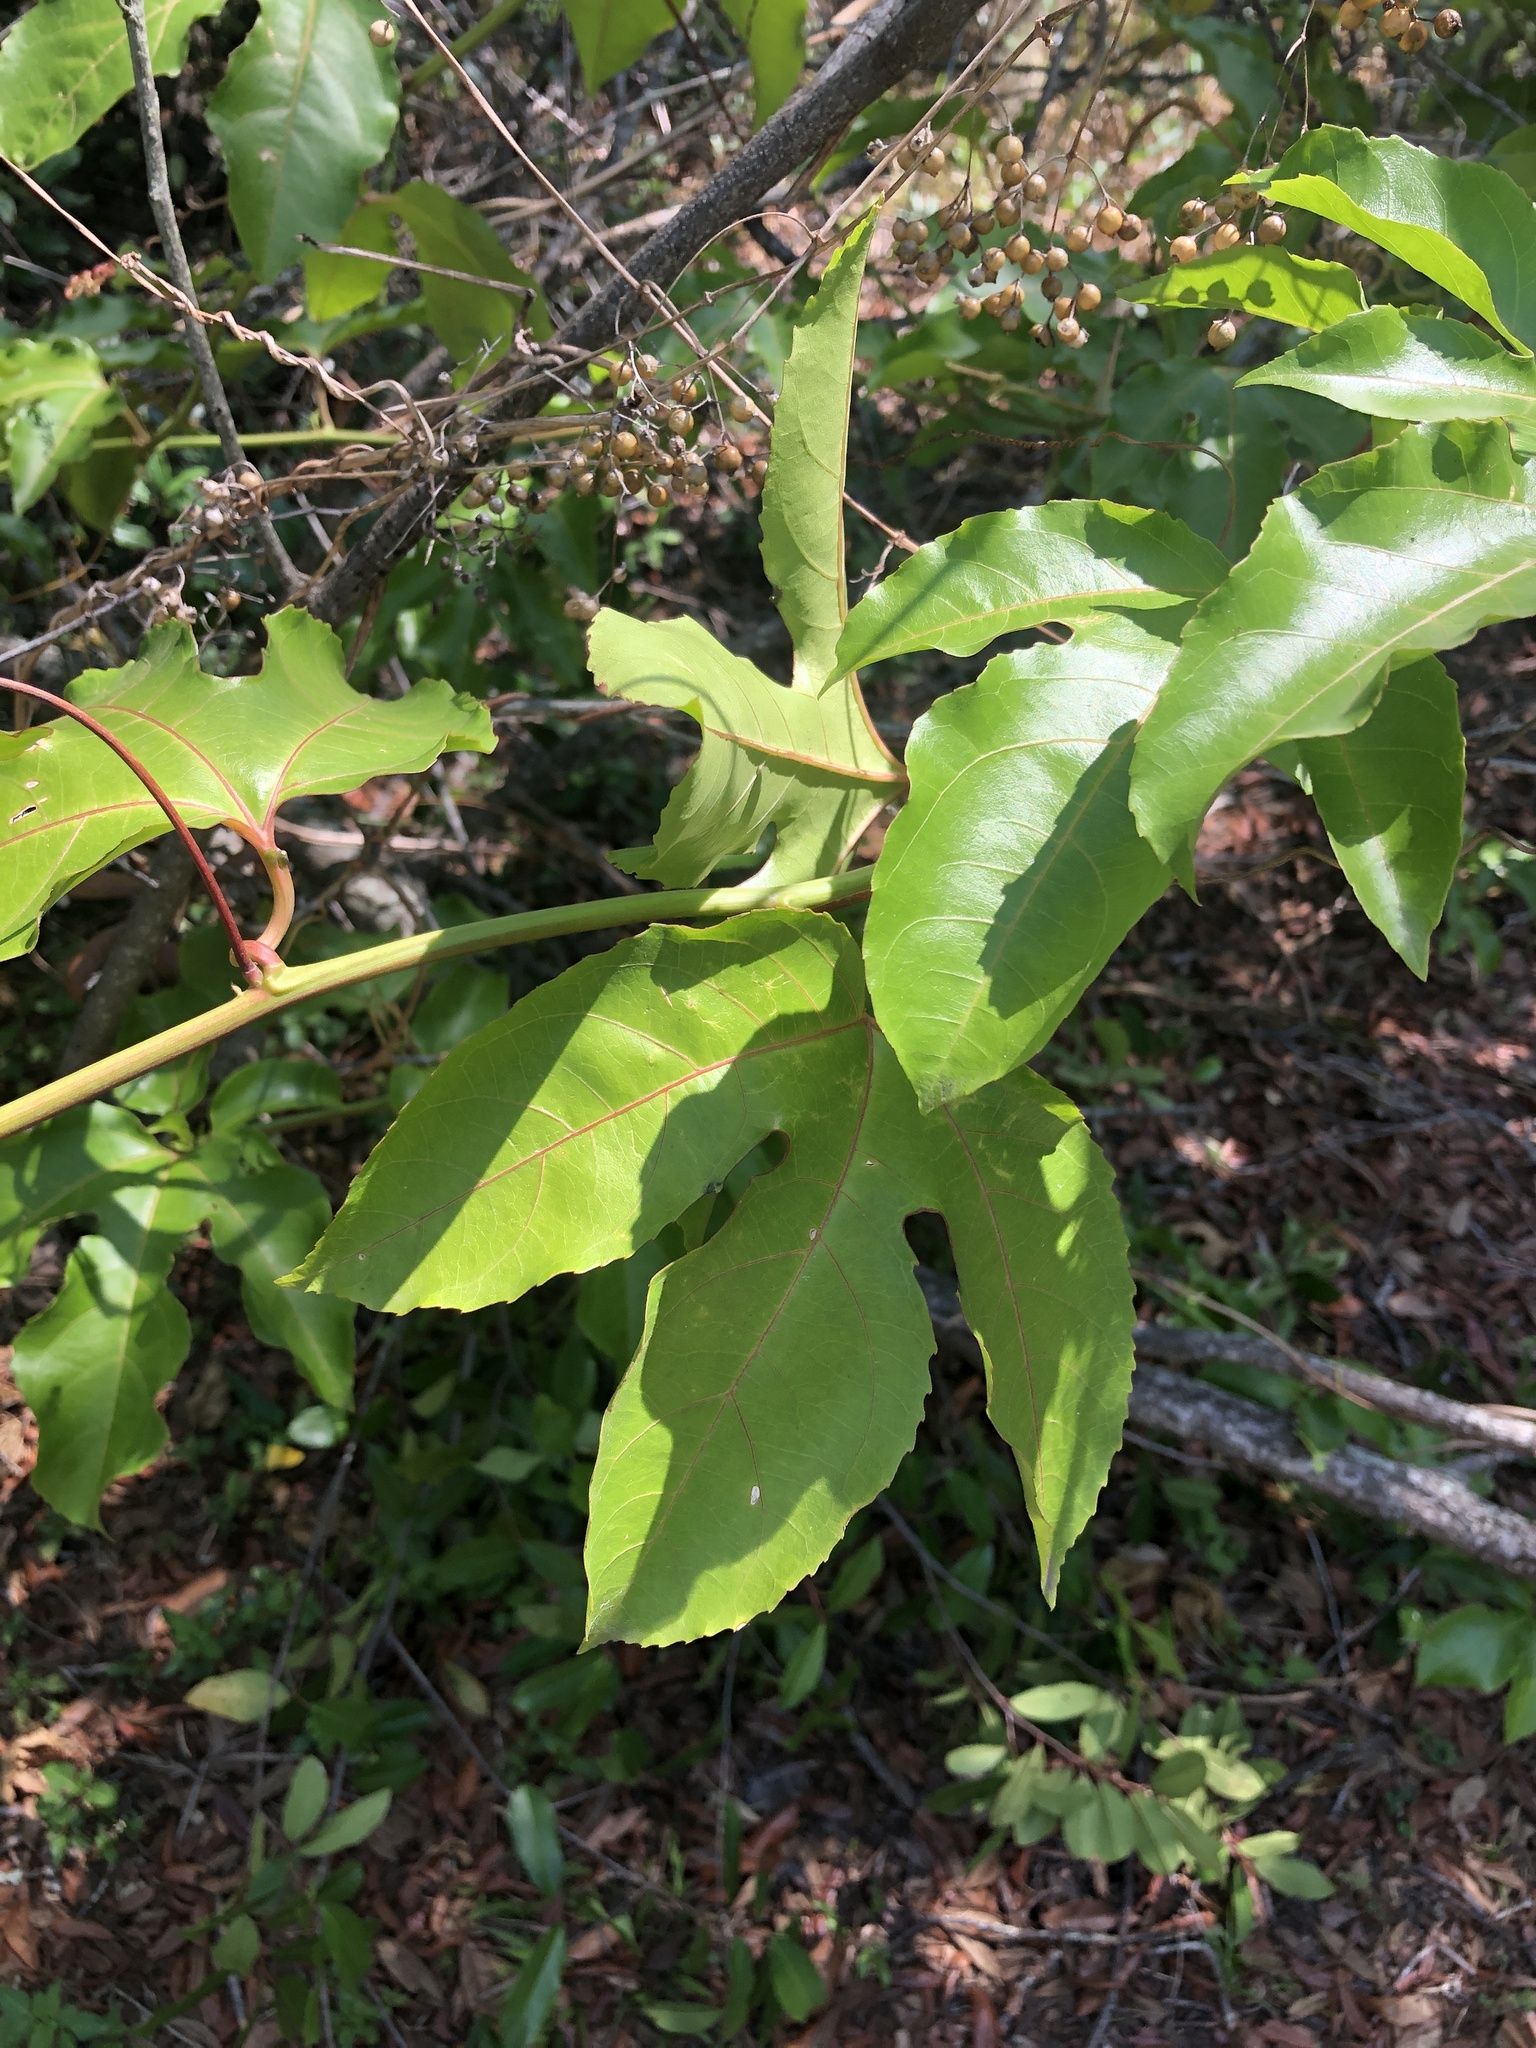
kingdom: Plantae
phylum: Tracheophyta
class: Magnoliopsida
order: Malpighiales
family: Passifloraceae
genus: Passiflora
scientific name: Passiflora edulis
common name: Purple granadilla
